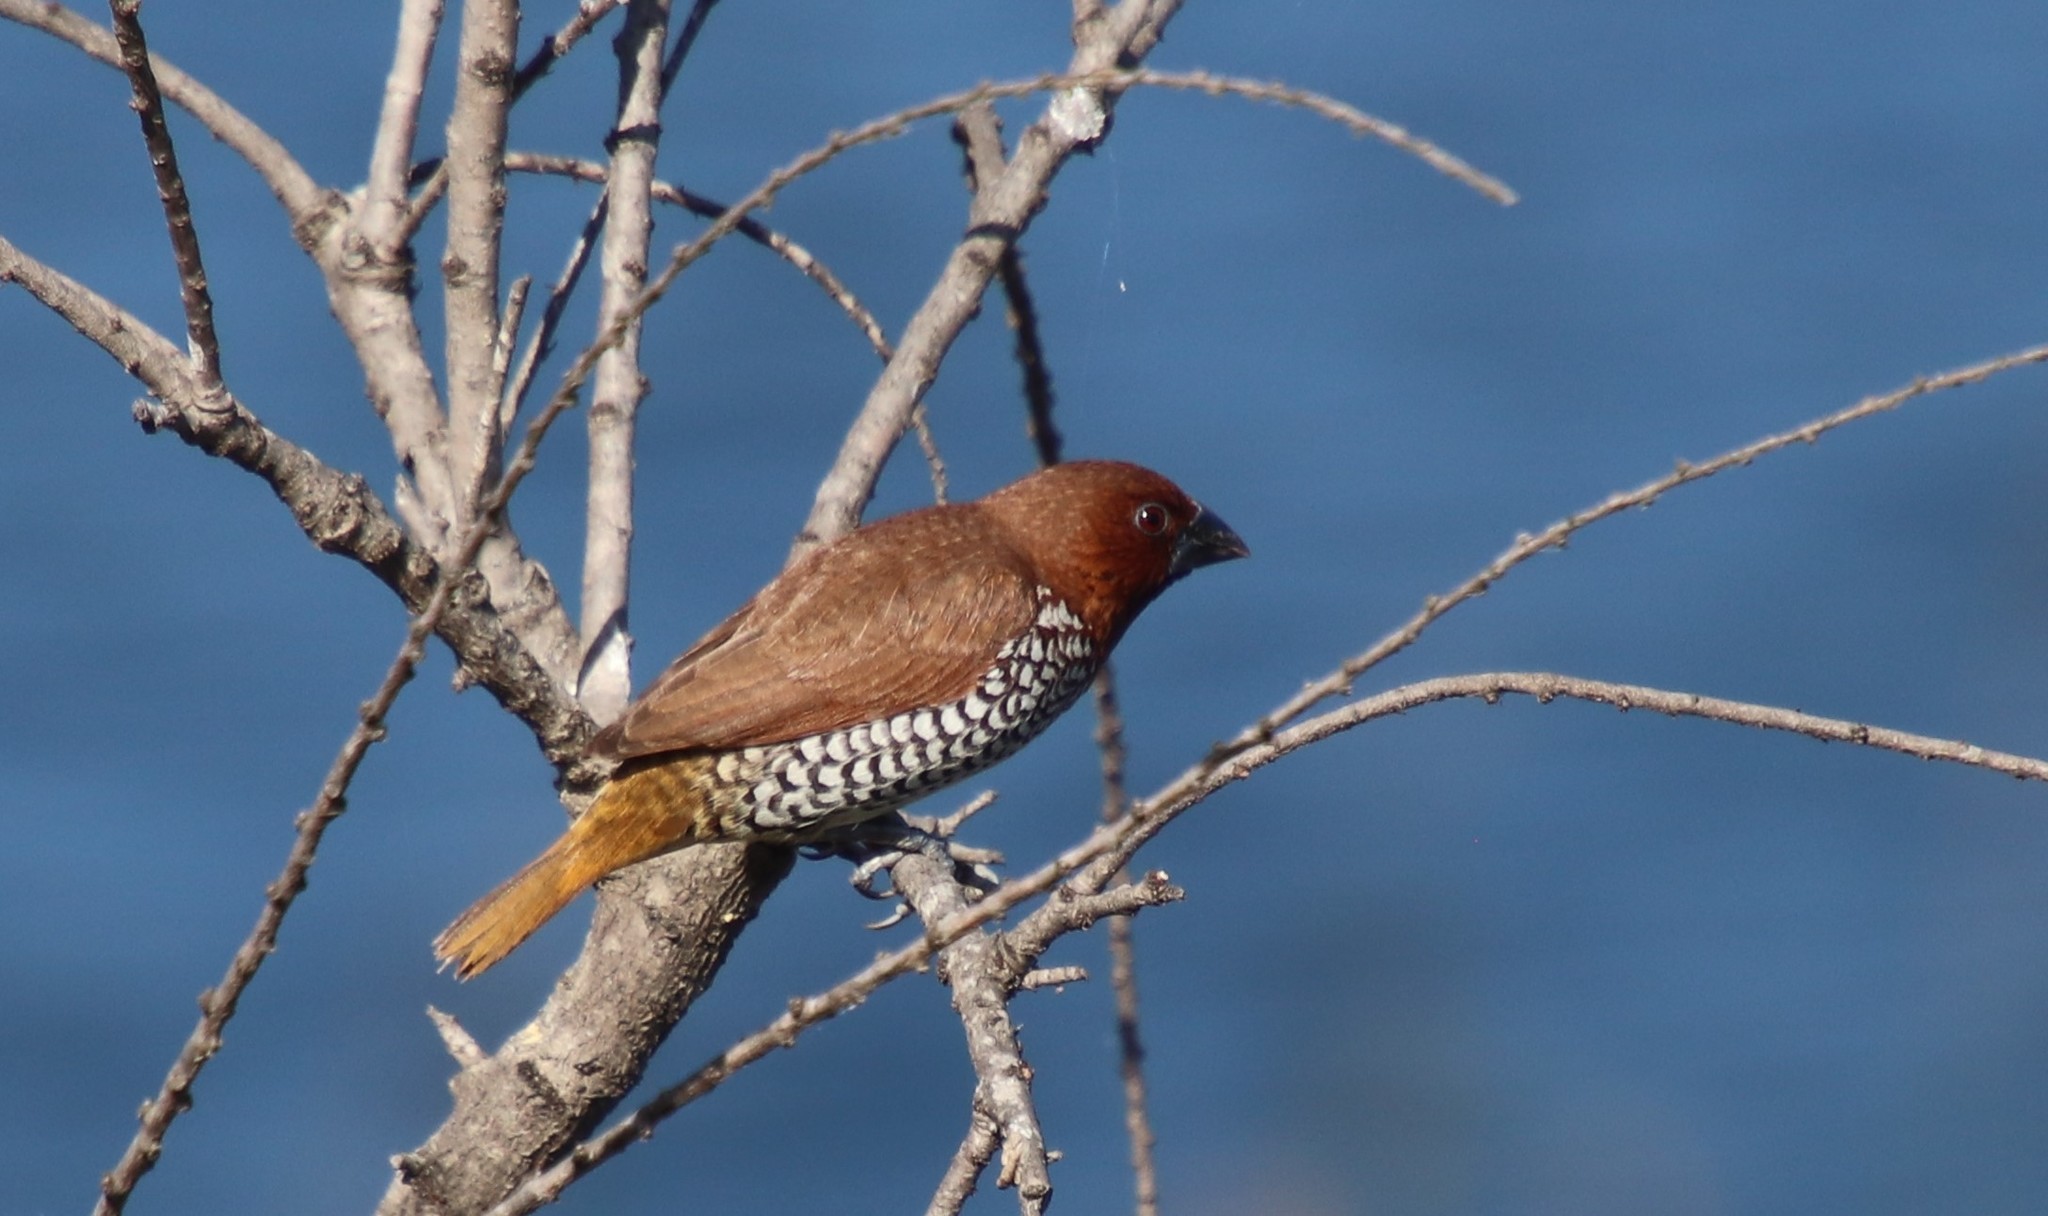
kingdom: Animalia
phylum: Chordata
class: Aves
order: Passeriformes
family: Estrildidae
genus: Lonchura
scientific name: Lonchura punctulata
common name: Scaly-breasted munia
